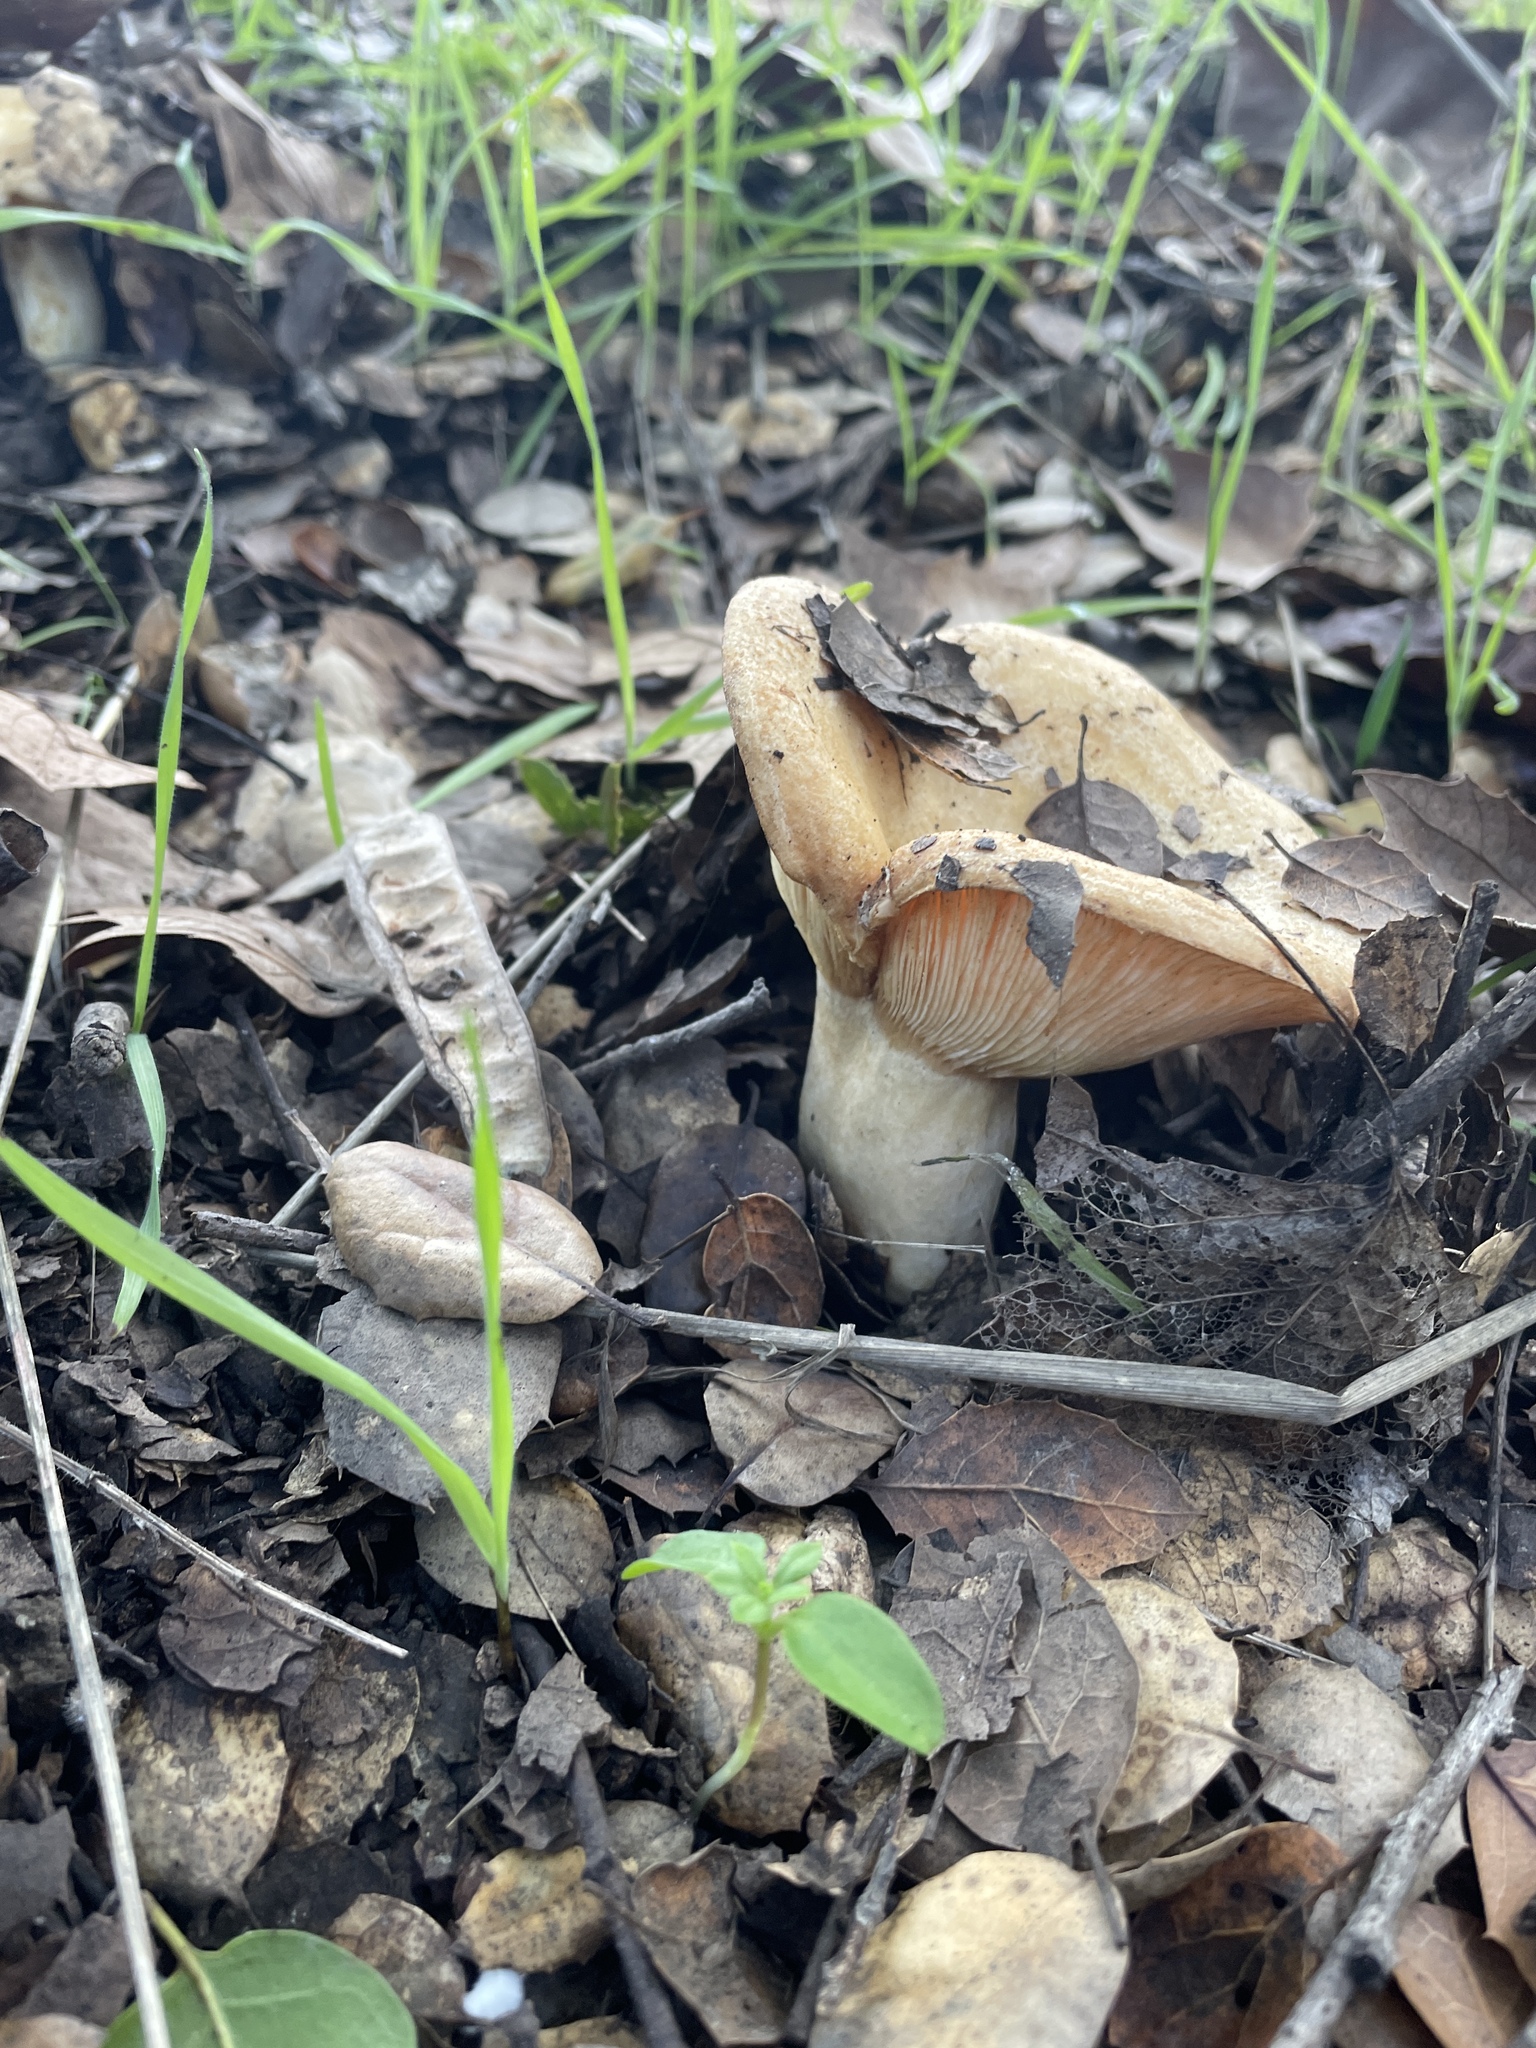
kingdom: Fungi
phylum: Basidiomycota
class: Agaricomycetes
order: Russulales
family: Russulaceae
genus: Lactarius
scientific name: Lactarius alnicola
